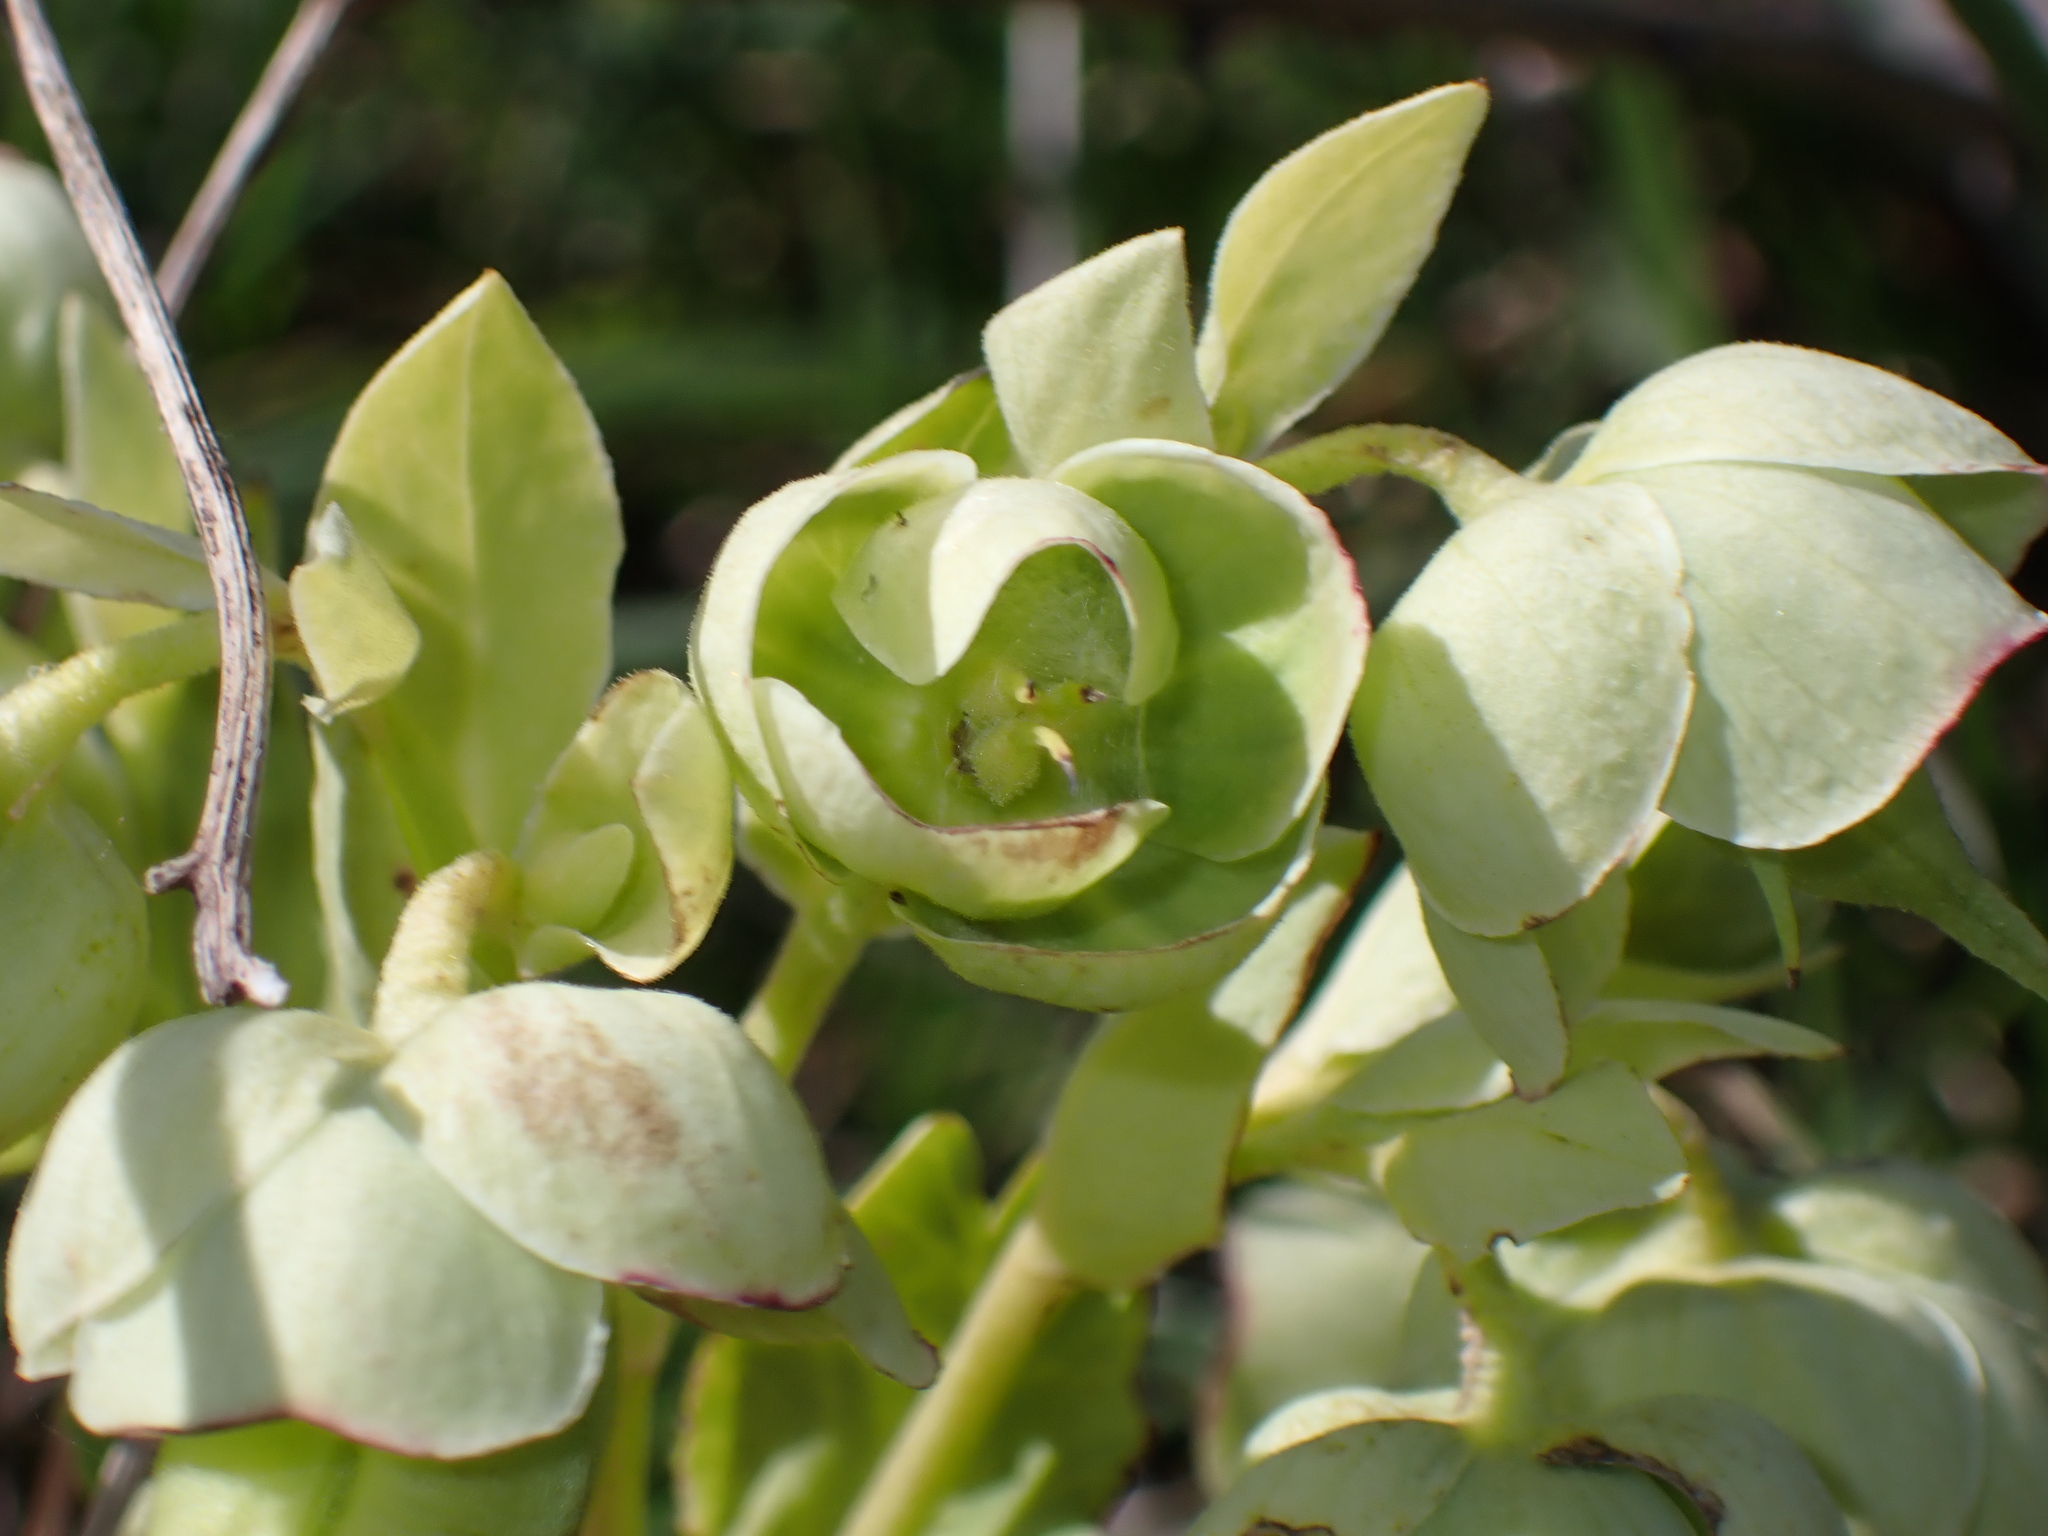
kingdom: Plantae
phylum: Tracheophyta
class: Magnoliopsida
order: Ranunculales
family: Ranunculaceae
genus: Helleborus
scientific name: Helleborus foetidus
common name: Stinking hellebore
